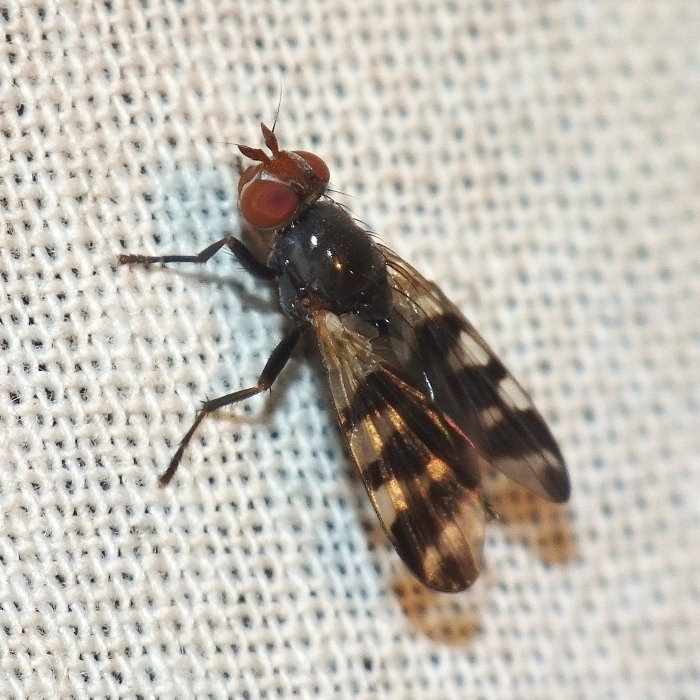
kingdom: Animalia
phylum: Arthropoda
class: Insecta
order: Diptera
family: Ulidiidae
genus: Ceroxys
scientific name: Ceroxys urticae
